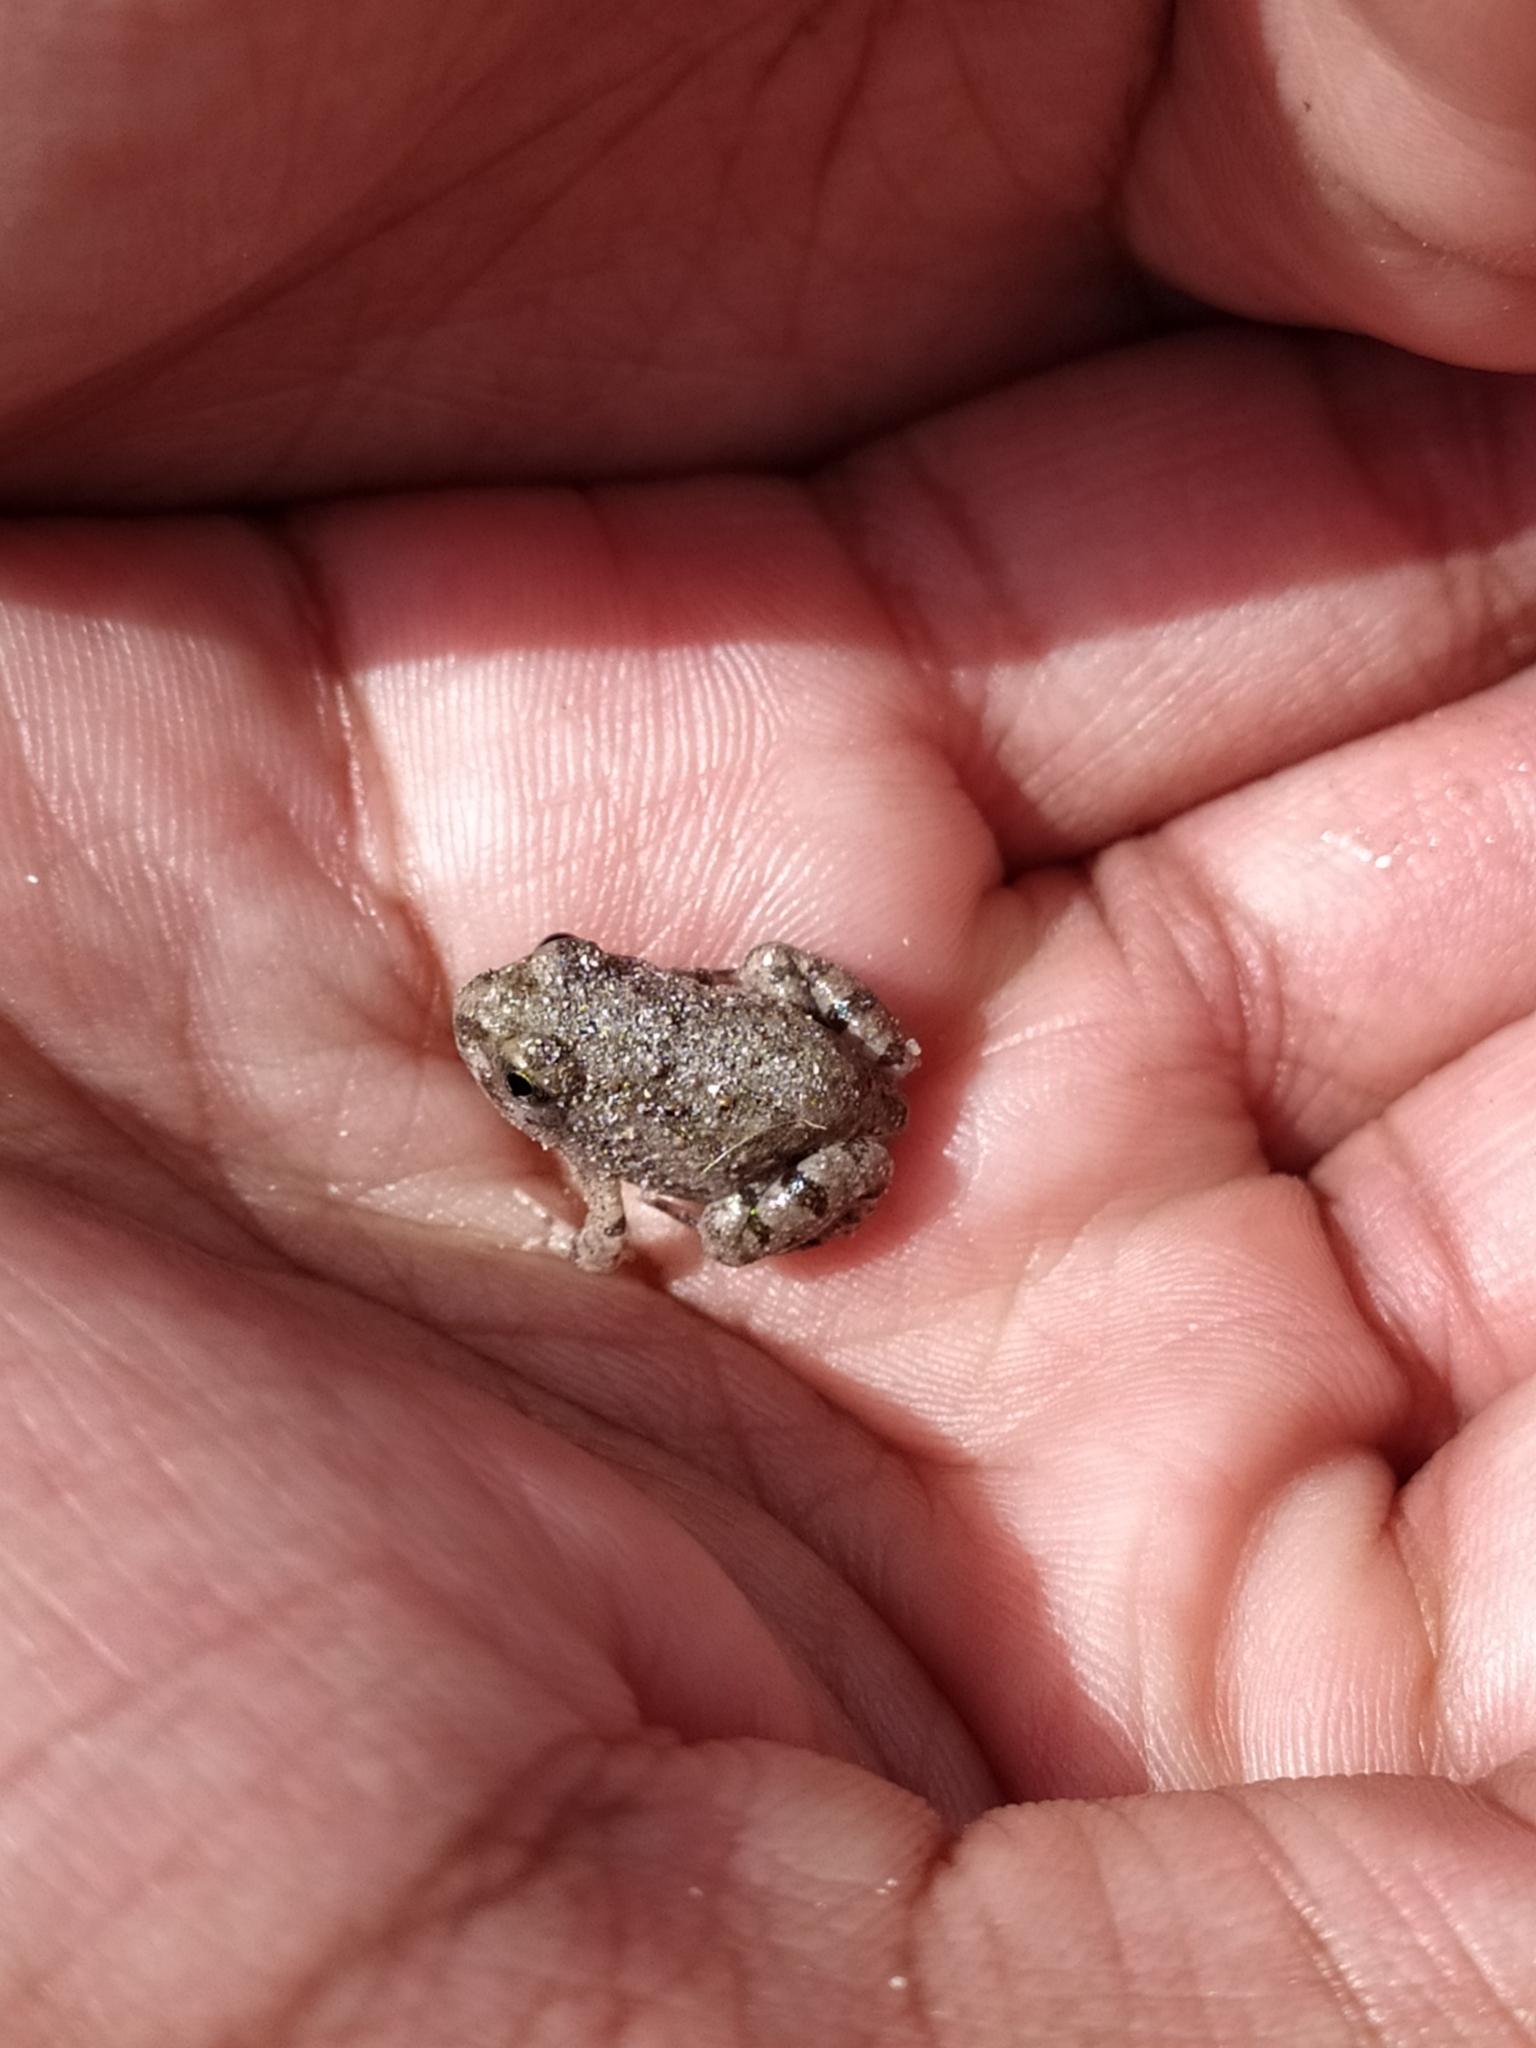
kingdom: Animalia
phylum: Chordata
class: Amphibia
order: Anura
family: Pyxicephalidae
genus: Tomopterna
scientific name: Tomopterna delalandii
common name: Delalande's burrowing bullfrog
